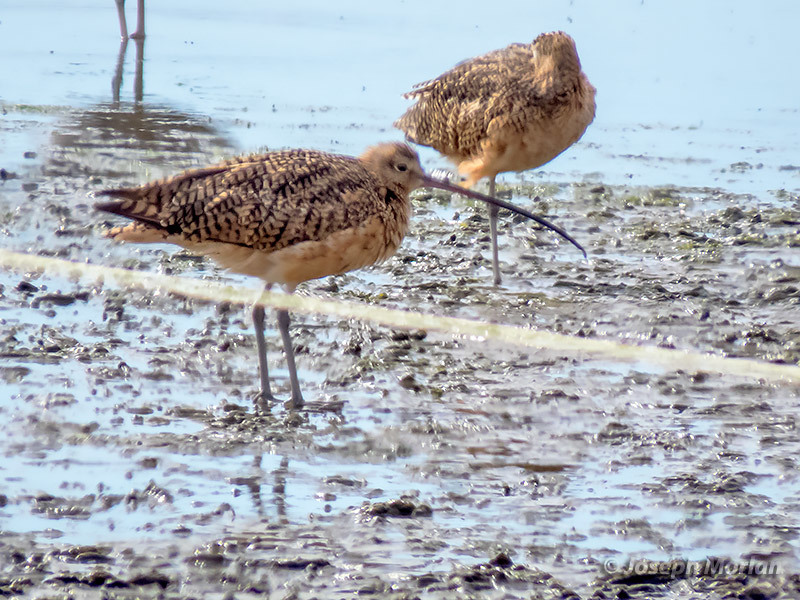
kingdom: Animalia
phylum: Chordata
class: Aves
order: Charadriiformes
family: Scolopacidae
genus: Numenius
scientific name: Numenius americanus
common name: Long-billed curlew
